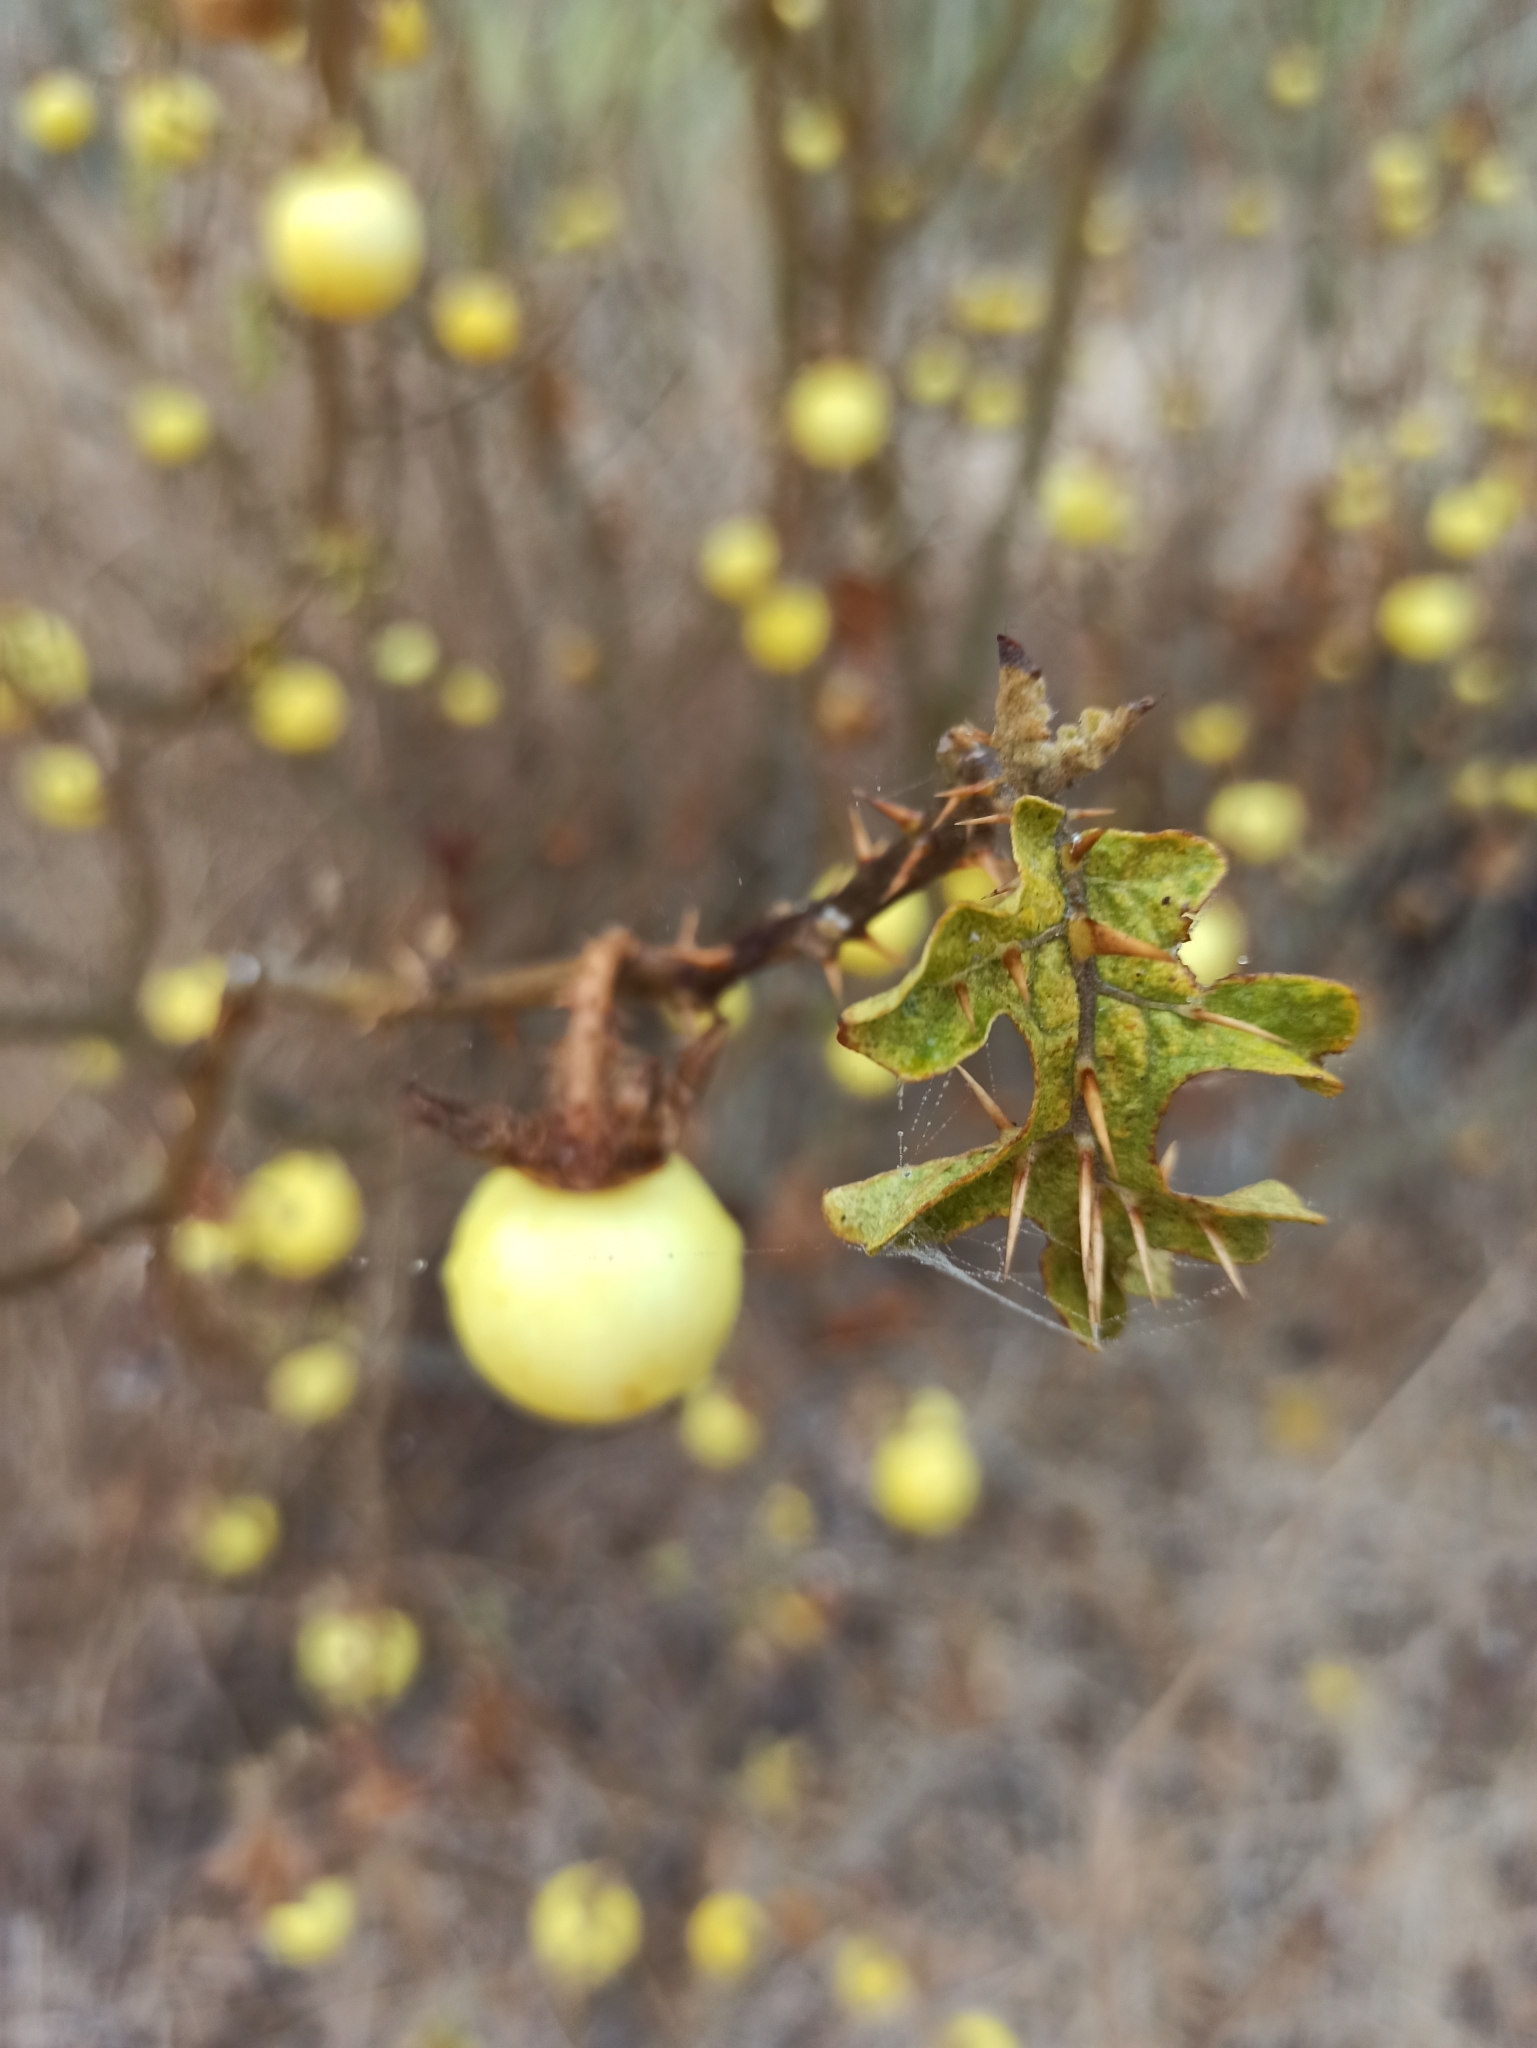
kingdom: Plantae
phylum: Tracheophyta
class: Magnoliopsida
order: Solanales
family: Solanaceae
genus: Solanum
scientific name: Solanum linnaeanum
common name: Nightshade
